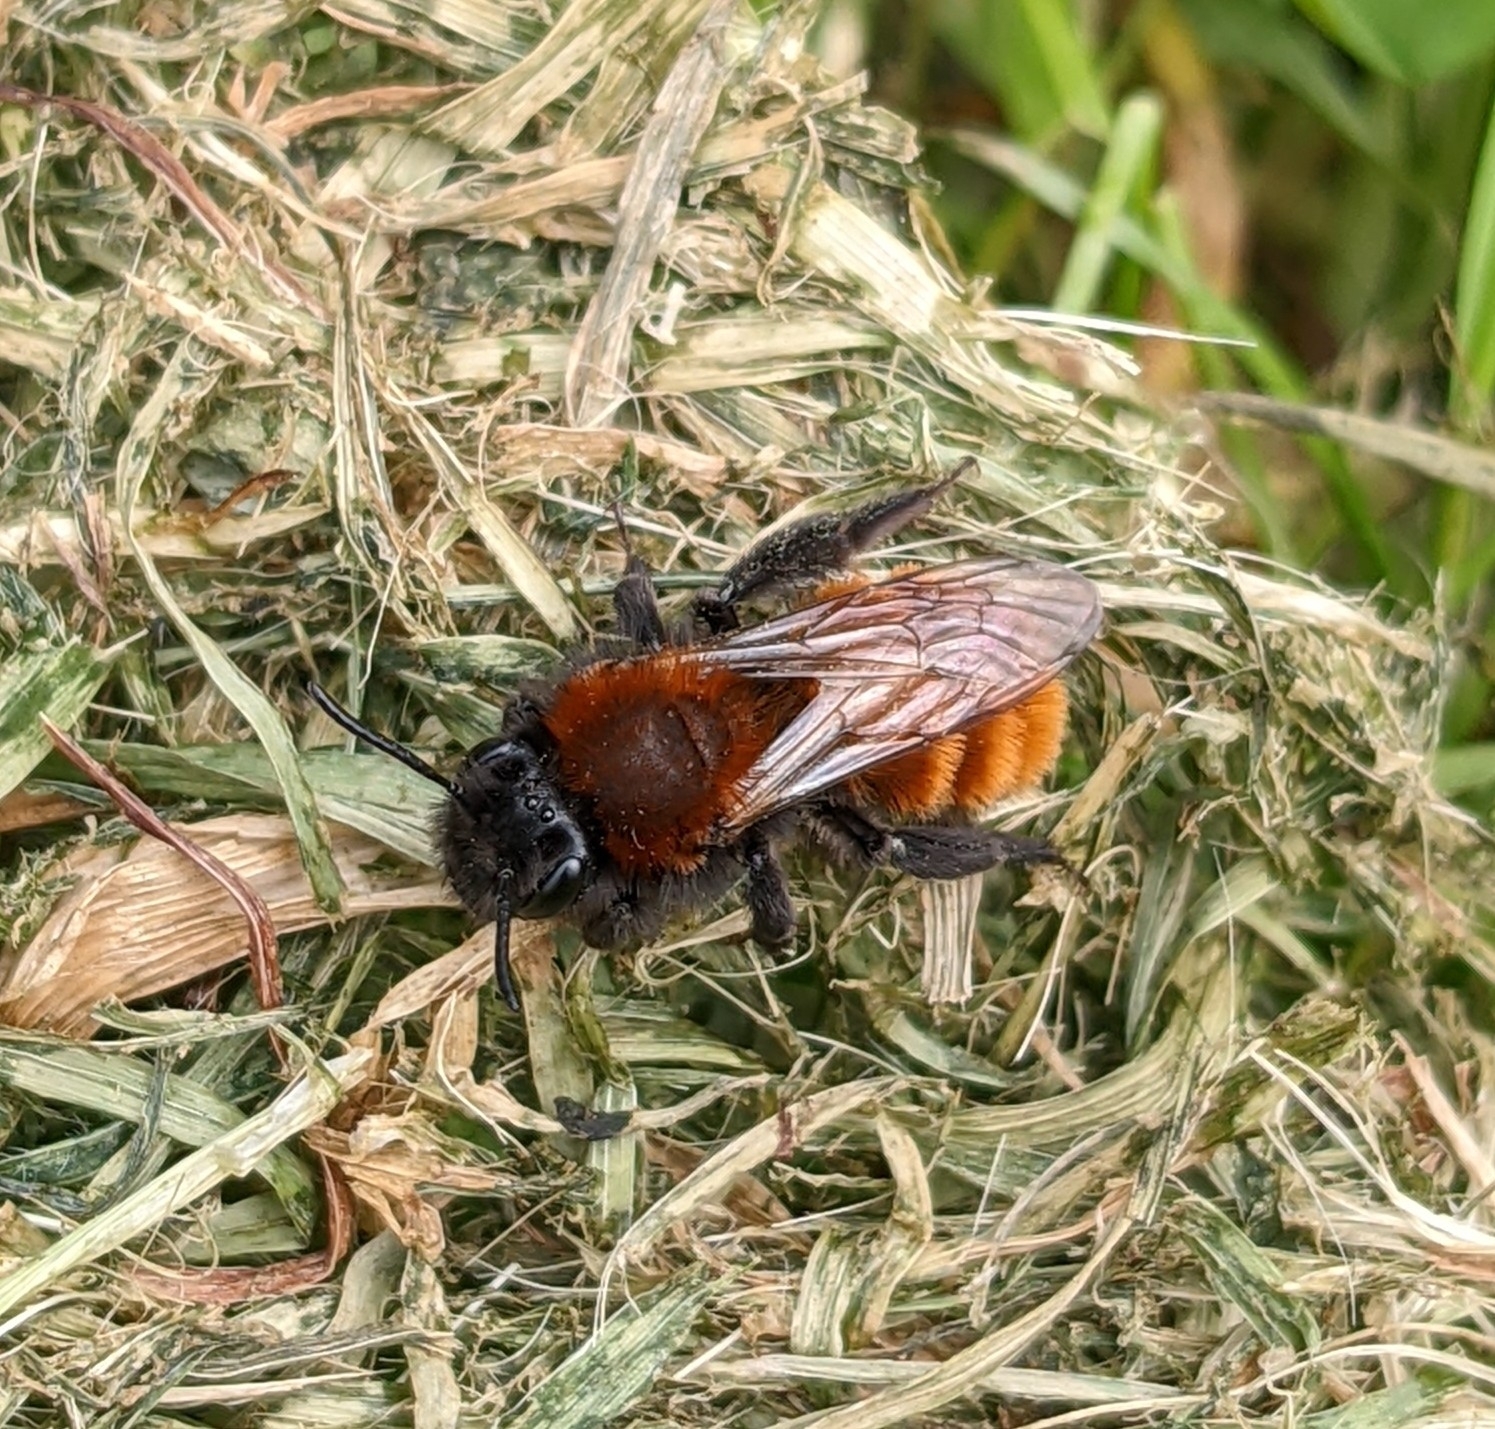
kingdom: Animalia
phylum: Arthropoda
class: Insecta
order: Hymenoptera
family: Andrenidae
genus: Andrena
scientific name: Andrena fulva
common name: Tawny mining bee
